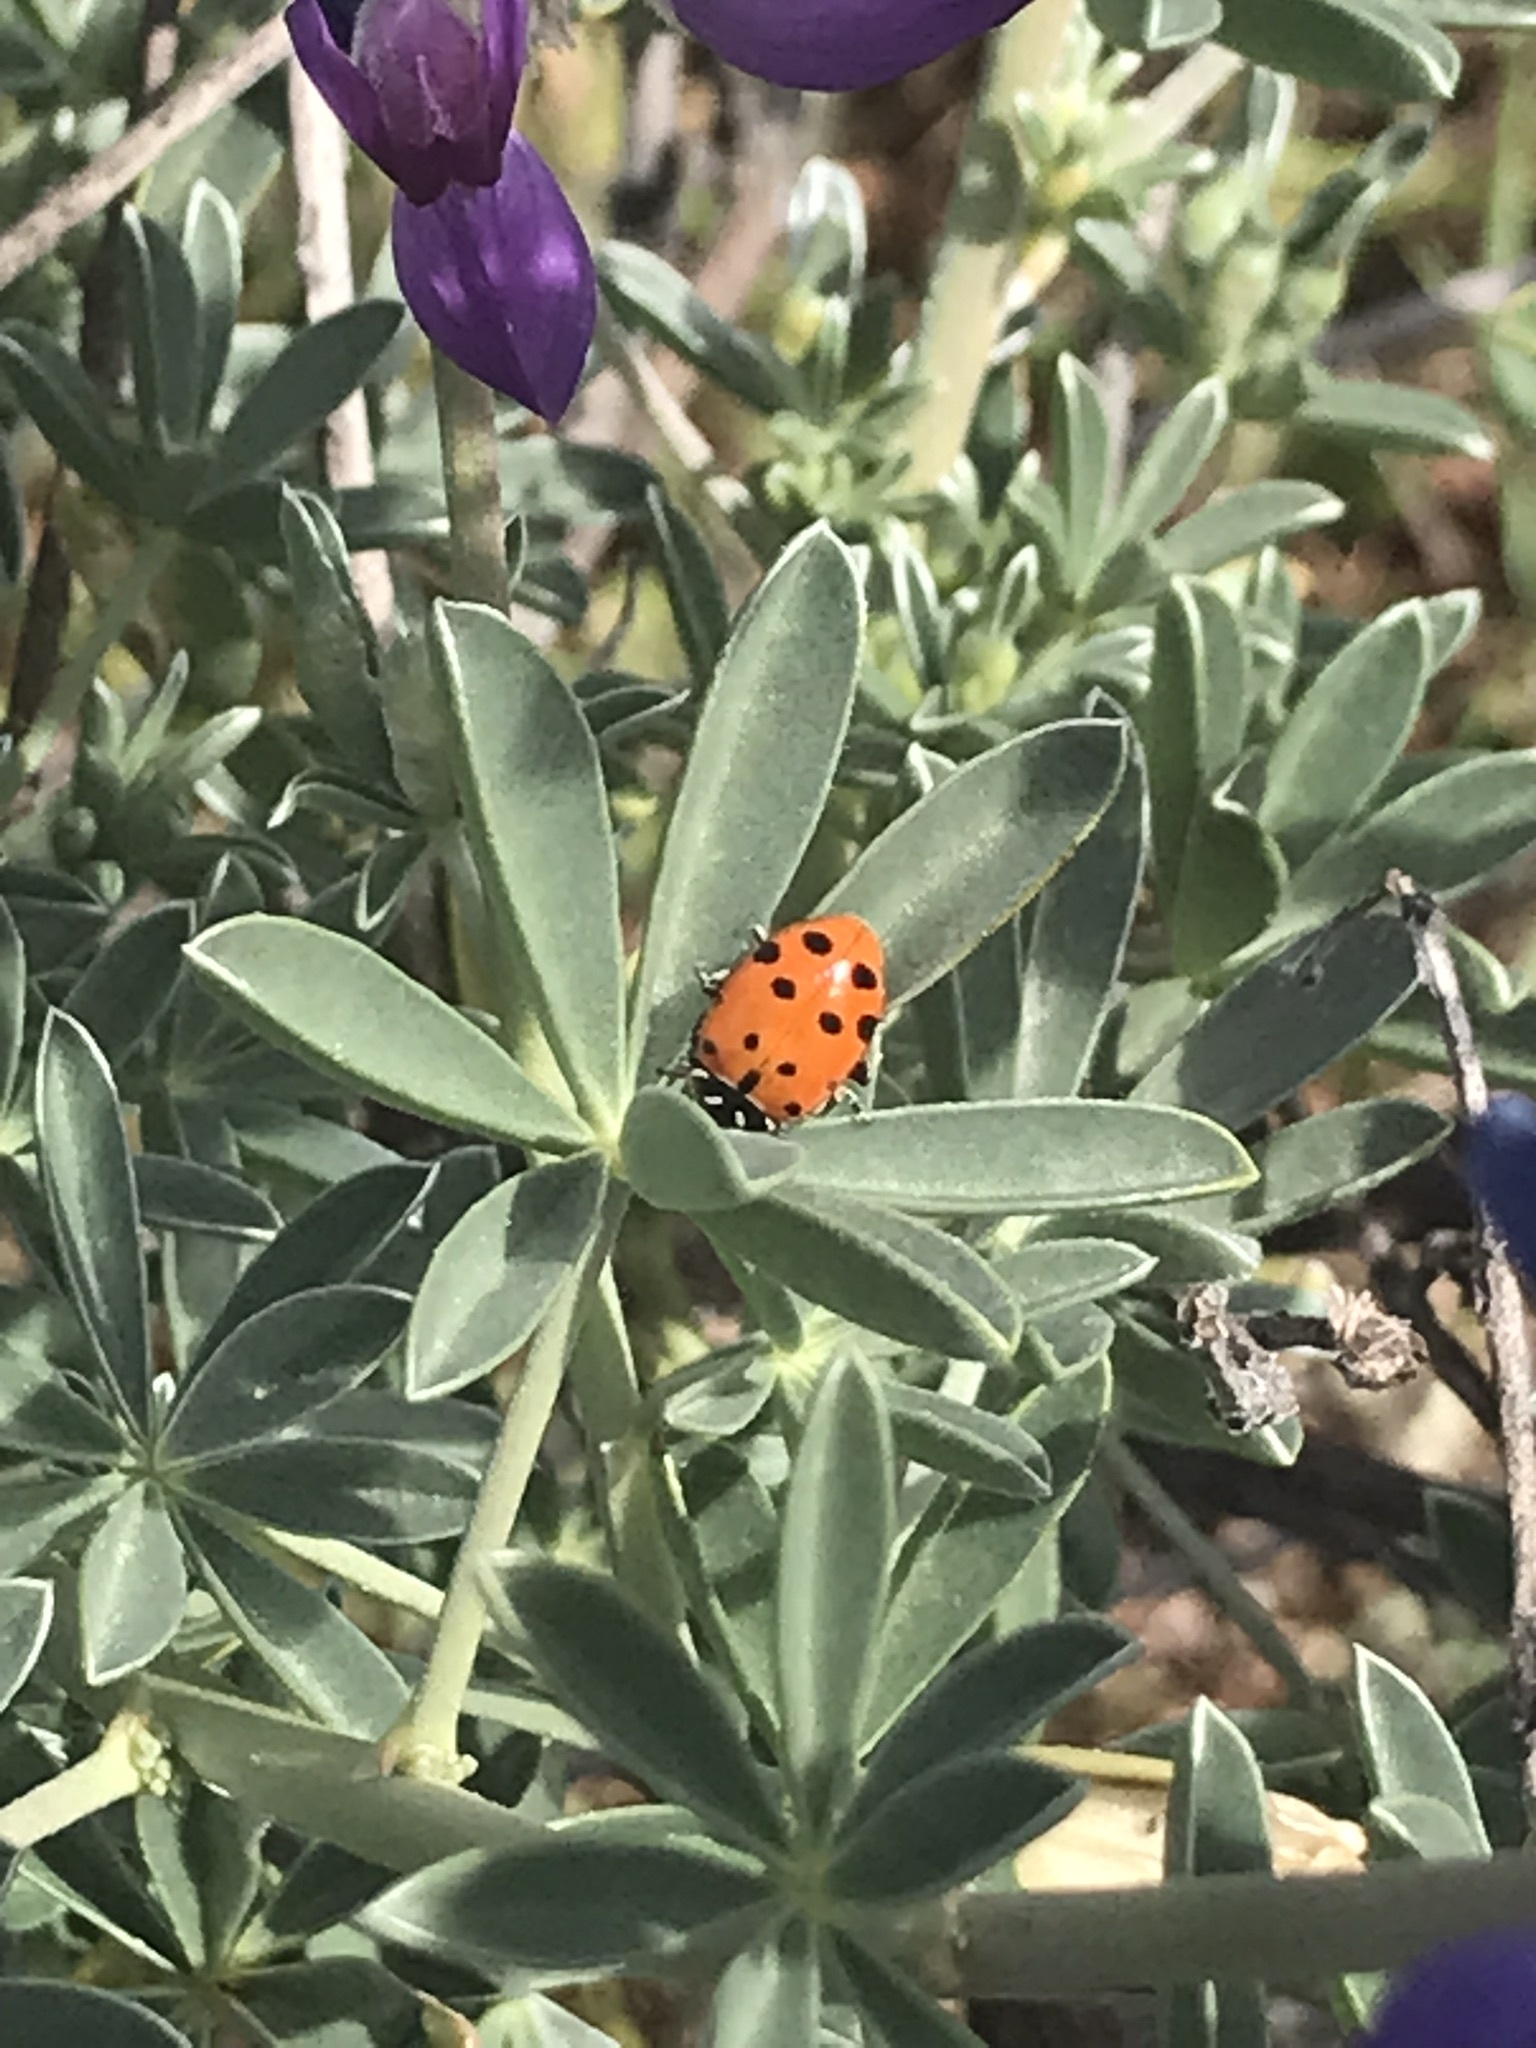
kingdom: Animalia
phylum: Arthropoda
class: Insecta
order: Coleoptera
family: Coccinellidae
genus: Hippodamia
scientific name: Hippodamia convergens
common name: Convergent lady beetle
